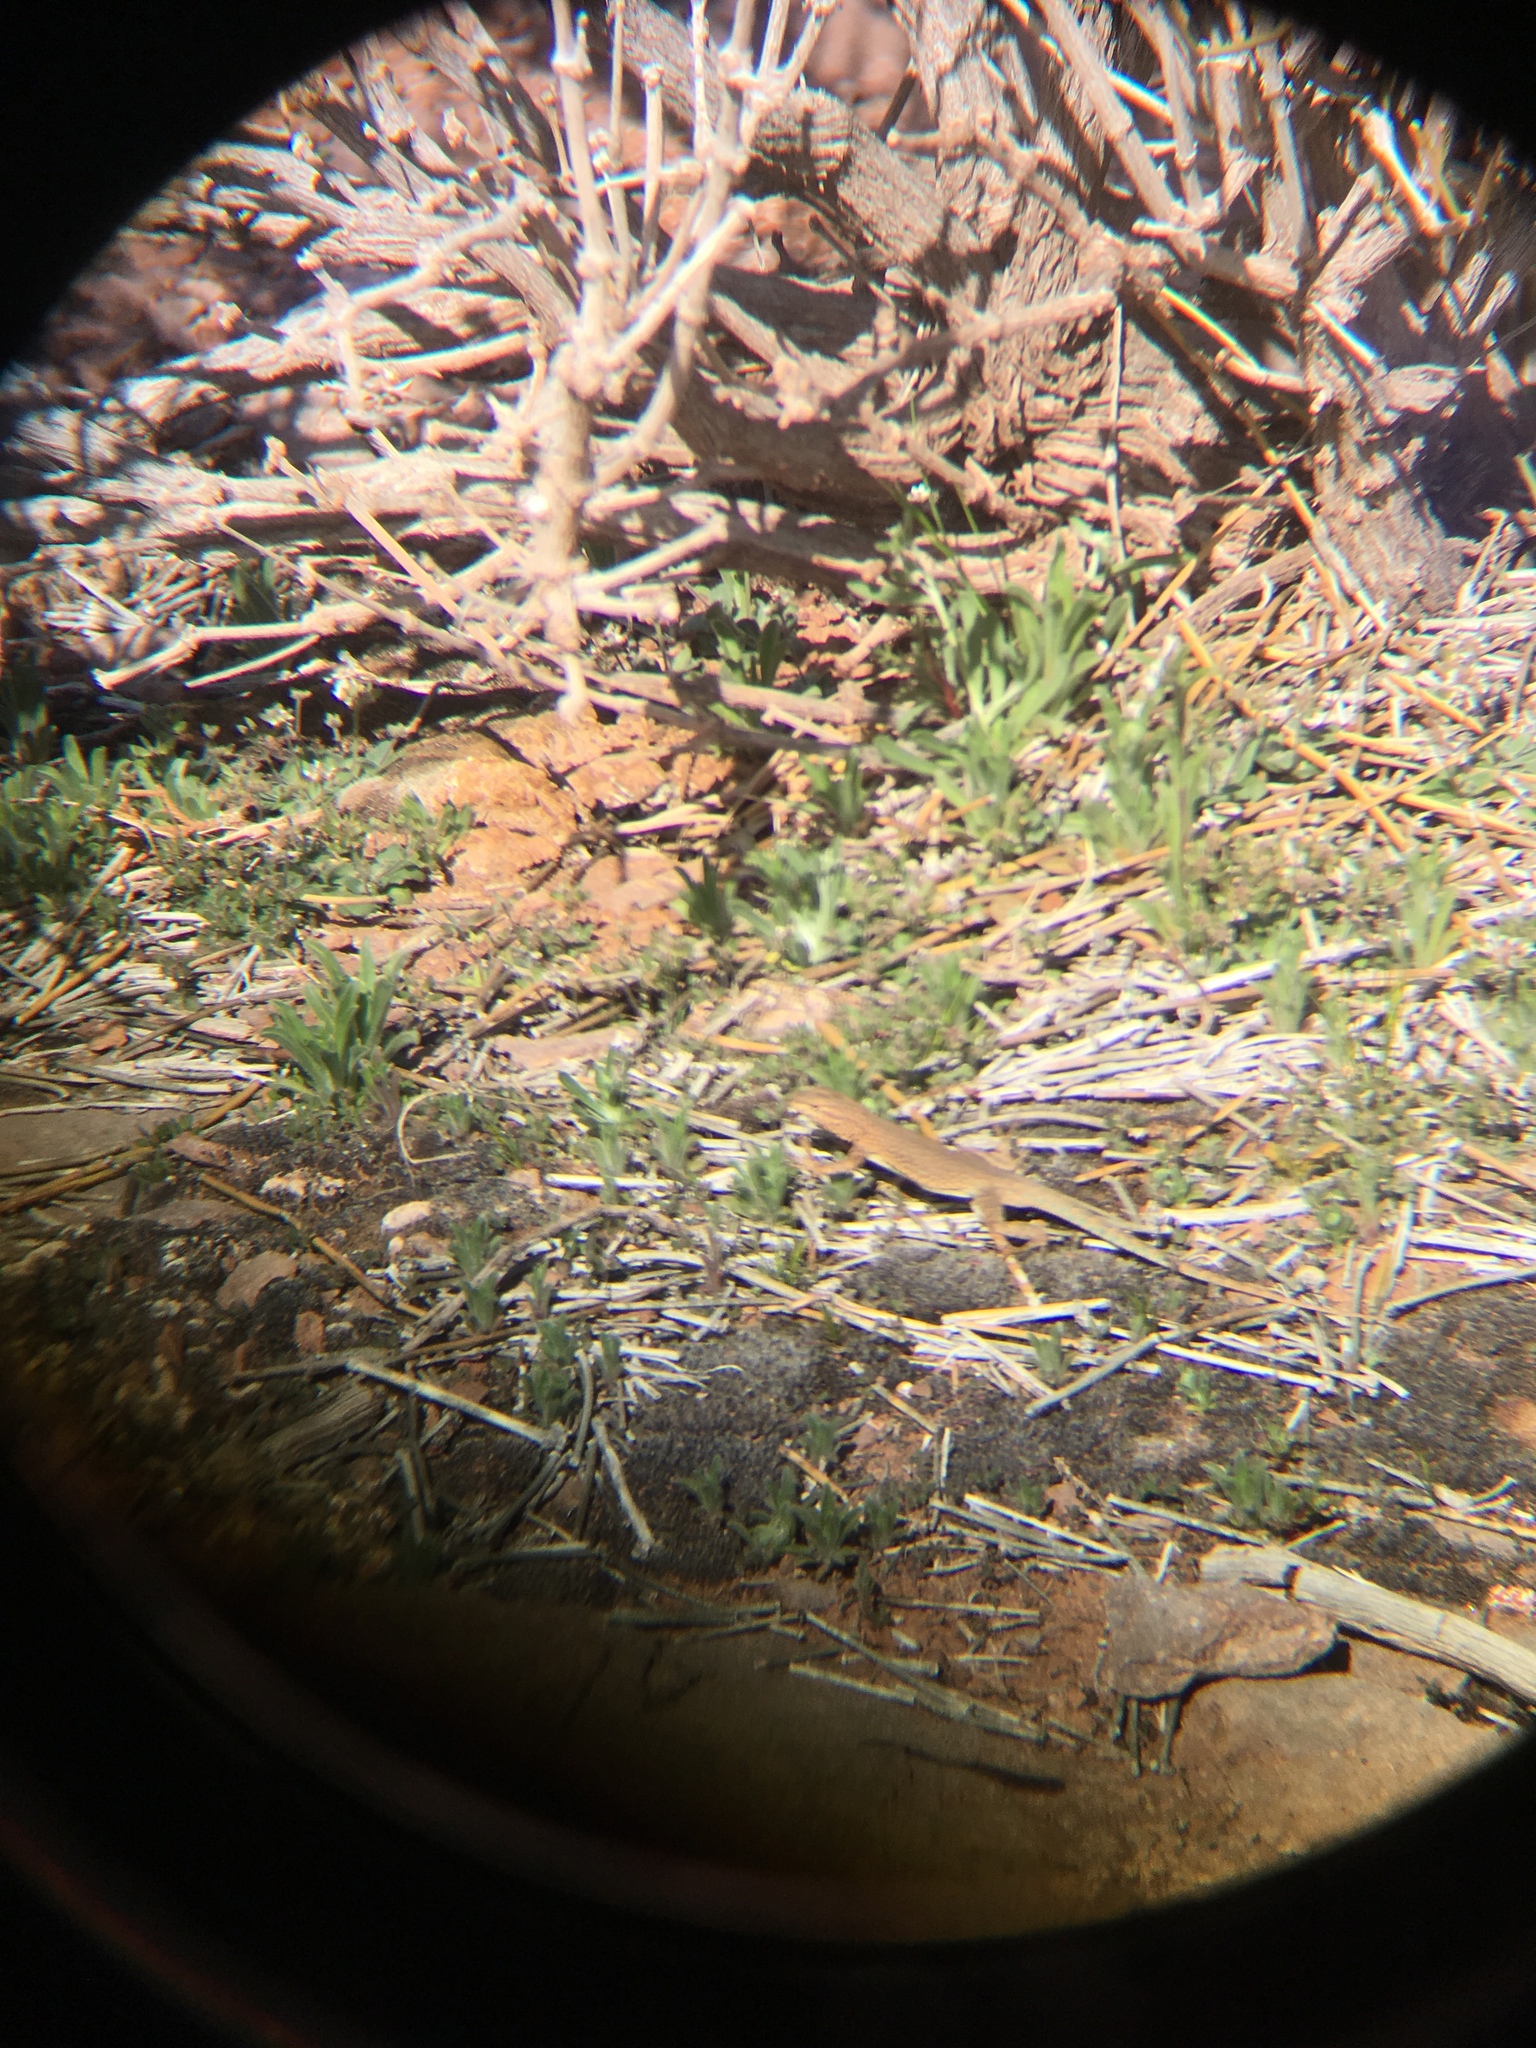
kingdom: Animalia
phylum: Chordata
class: Squamata
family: Phrynosomatidae
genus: Uta
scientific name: Uta stansburiana
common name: Side-blotched lizard
